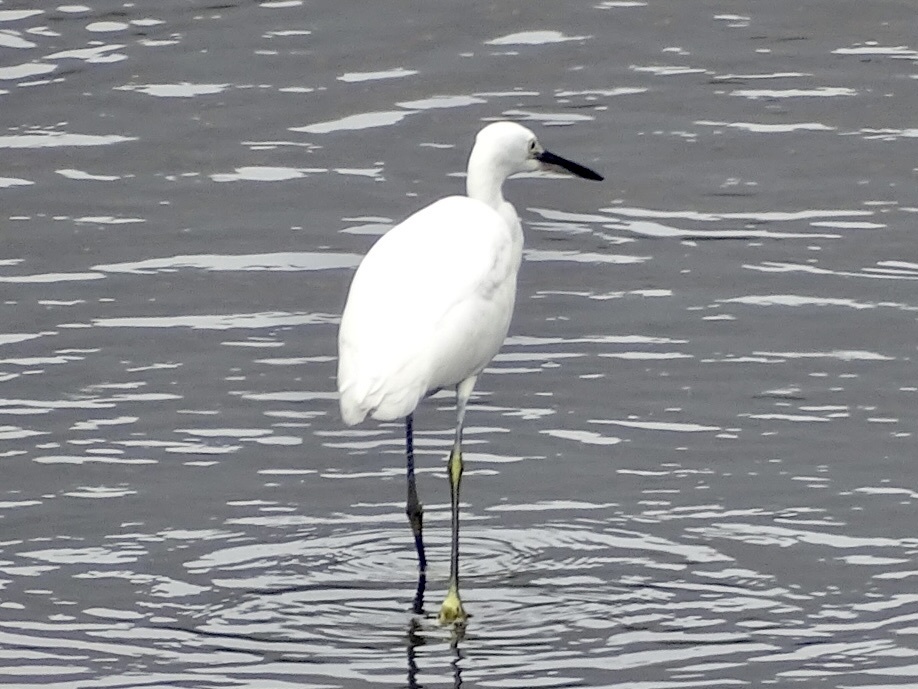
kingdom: Animalia
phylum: Chordata
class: Aves
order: Pelecaniformes
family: Ardeidae
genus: Egretta
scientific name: Egretta garzetta
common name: Little egret
